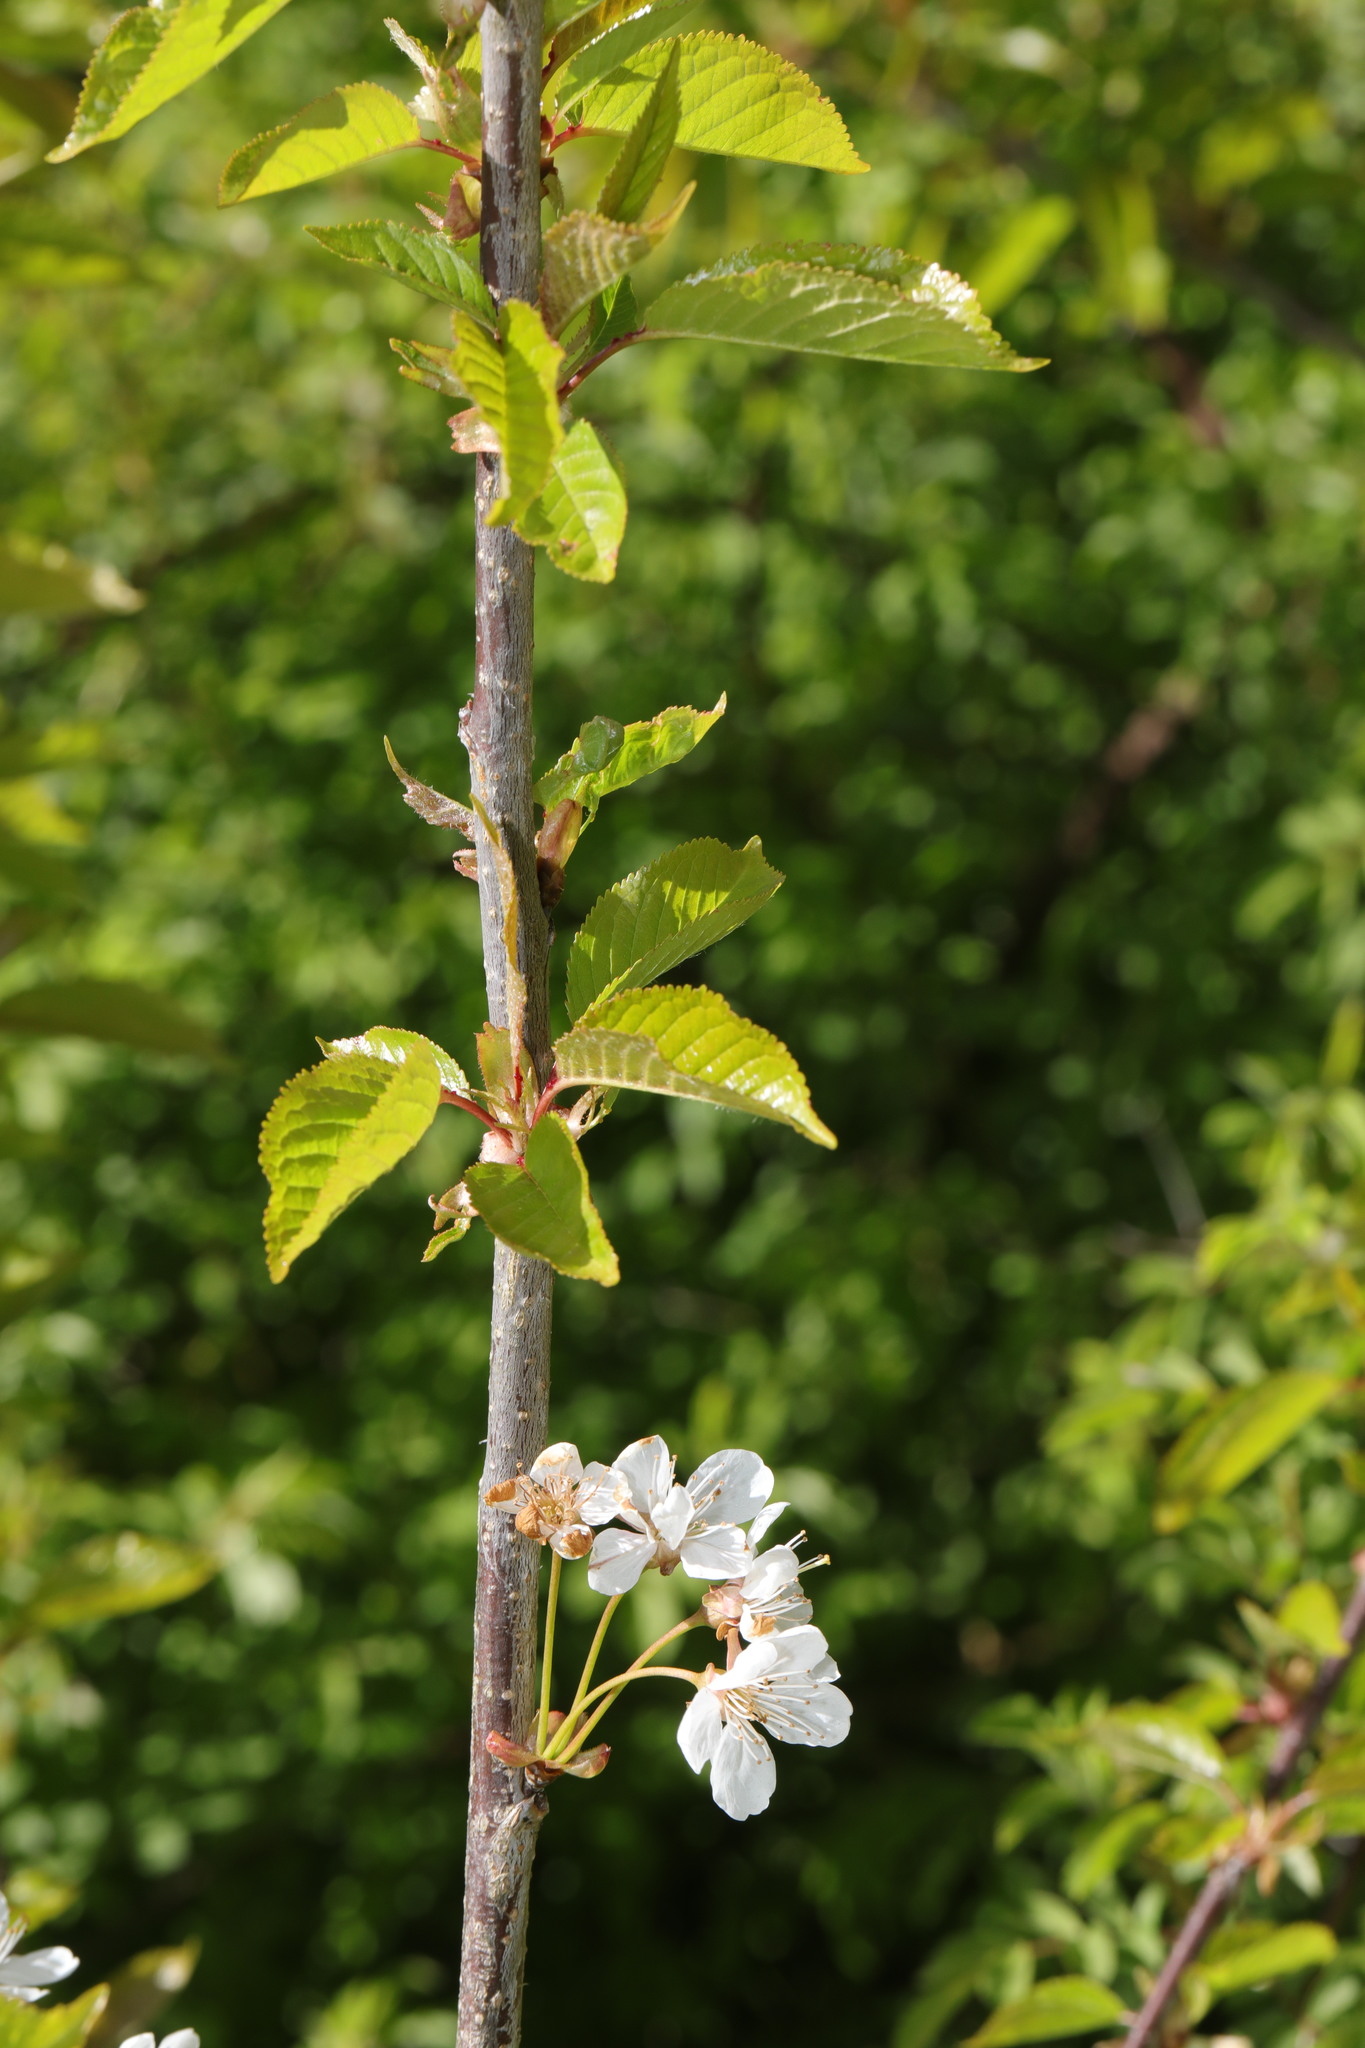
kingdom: Plantae
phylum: Tracheophyta
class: Magnoliopsida
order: Rosales
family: Rosaceae
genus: Prunus
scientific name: Prunus avium
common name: Sweet cherry
